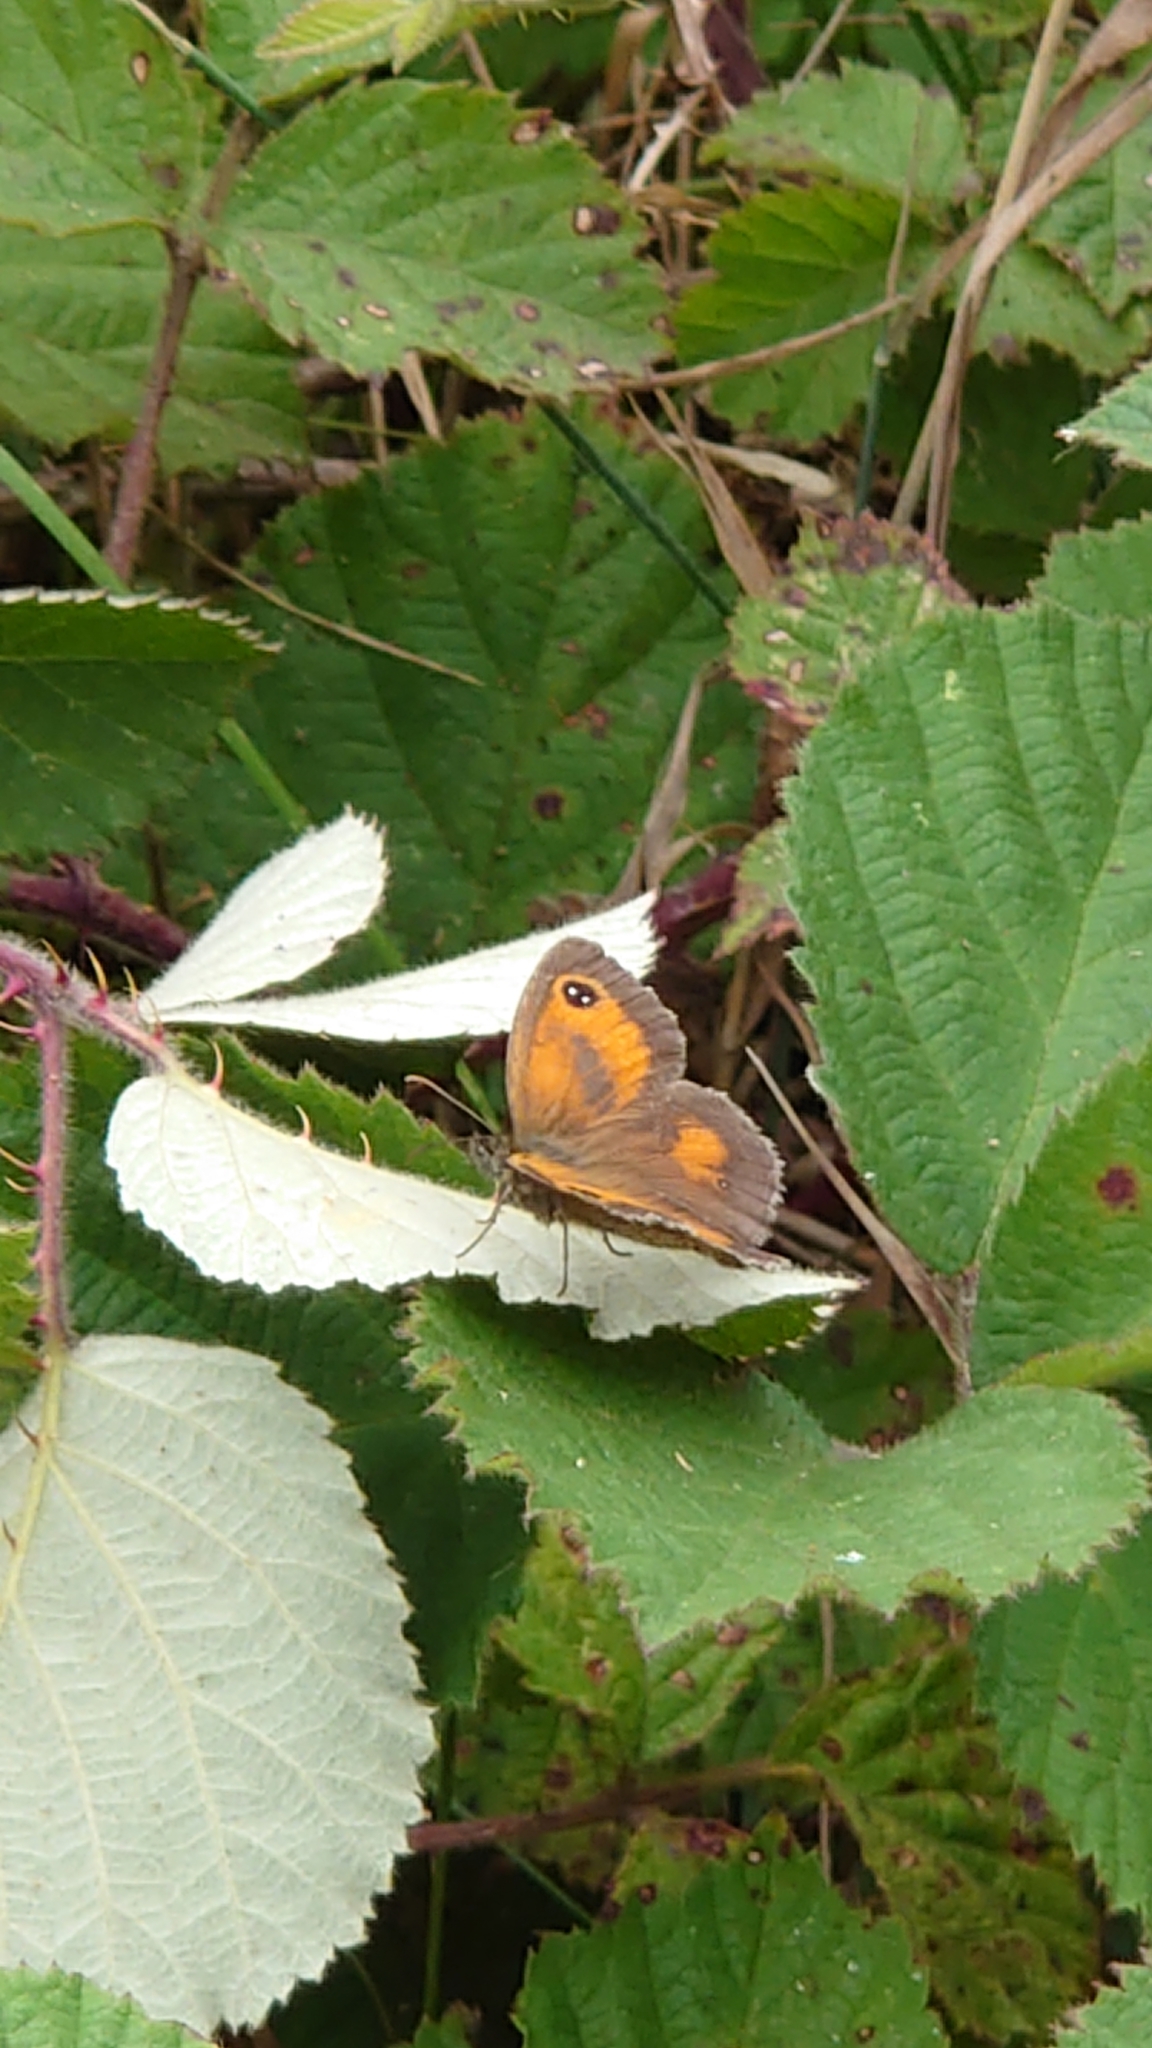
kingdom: Animalia
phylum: Arthropoda
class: Insecta
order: Lepidoptera
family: Nymphalidae
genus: Pyronia
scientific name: Pyronia tithonus
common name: Gatekeeper
